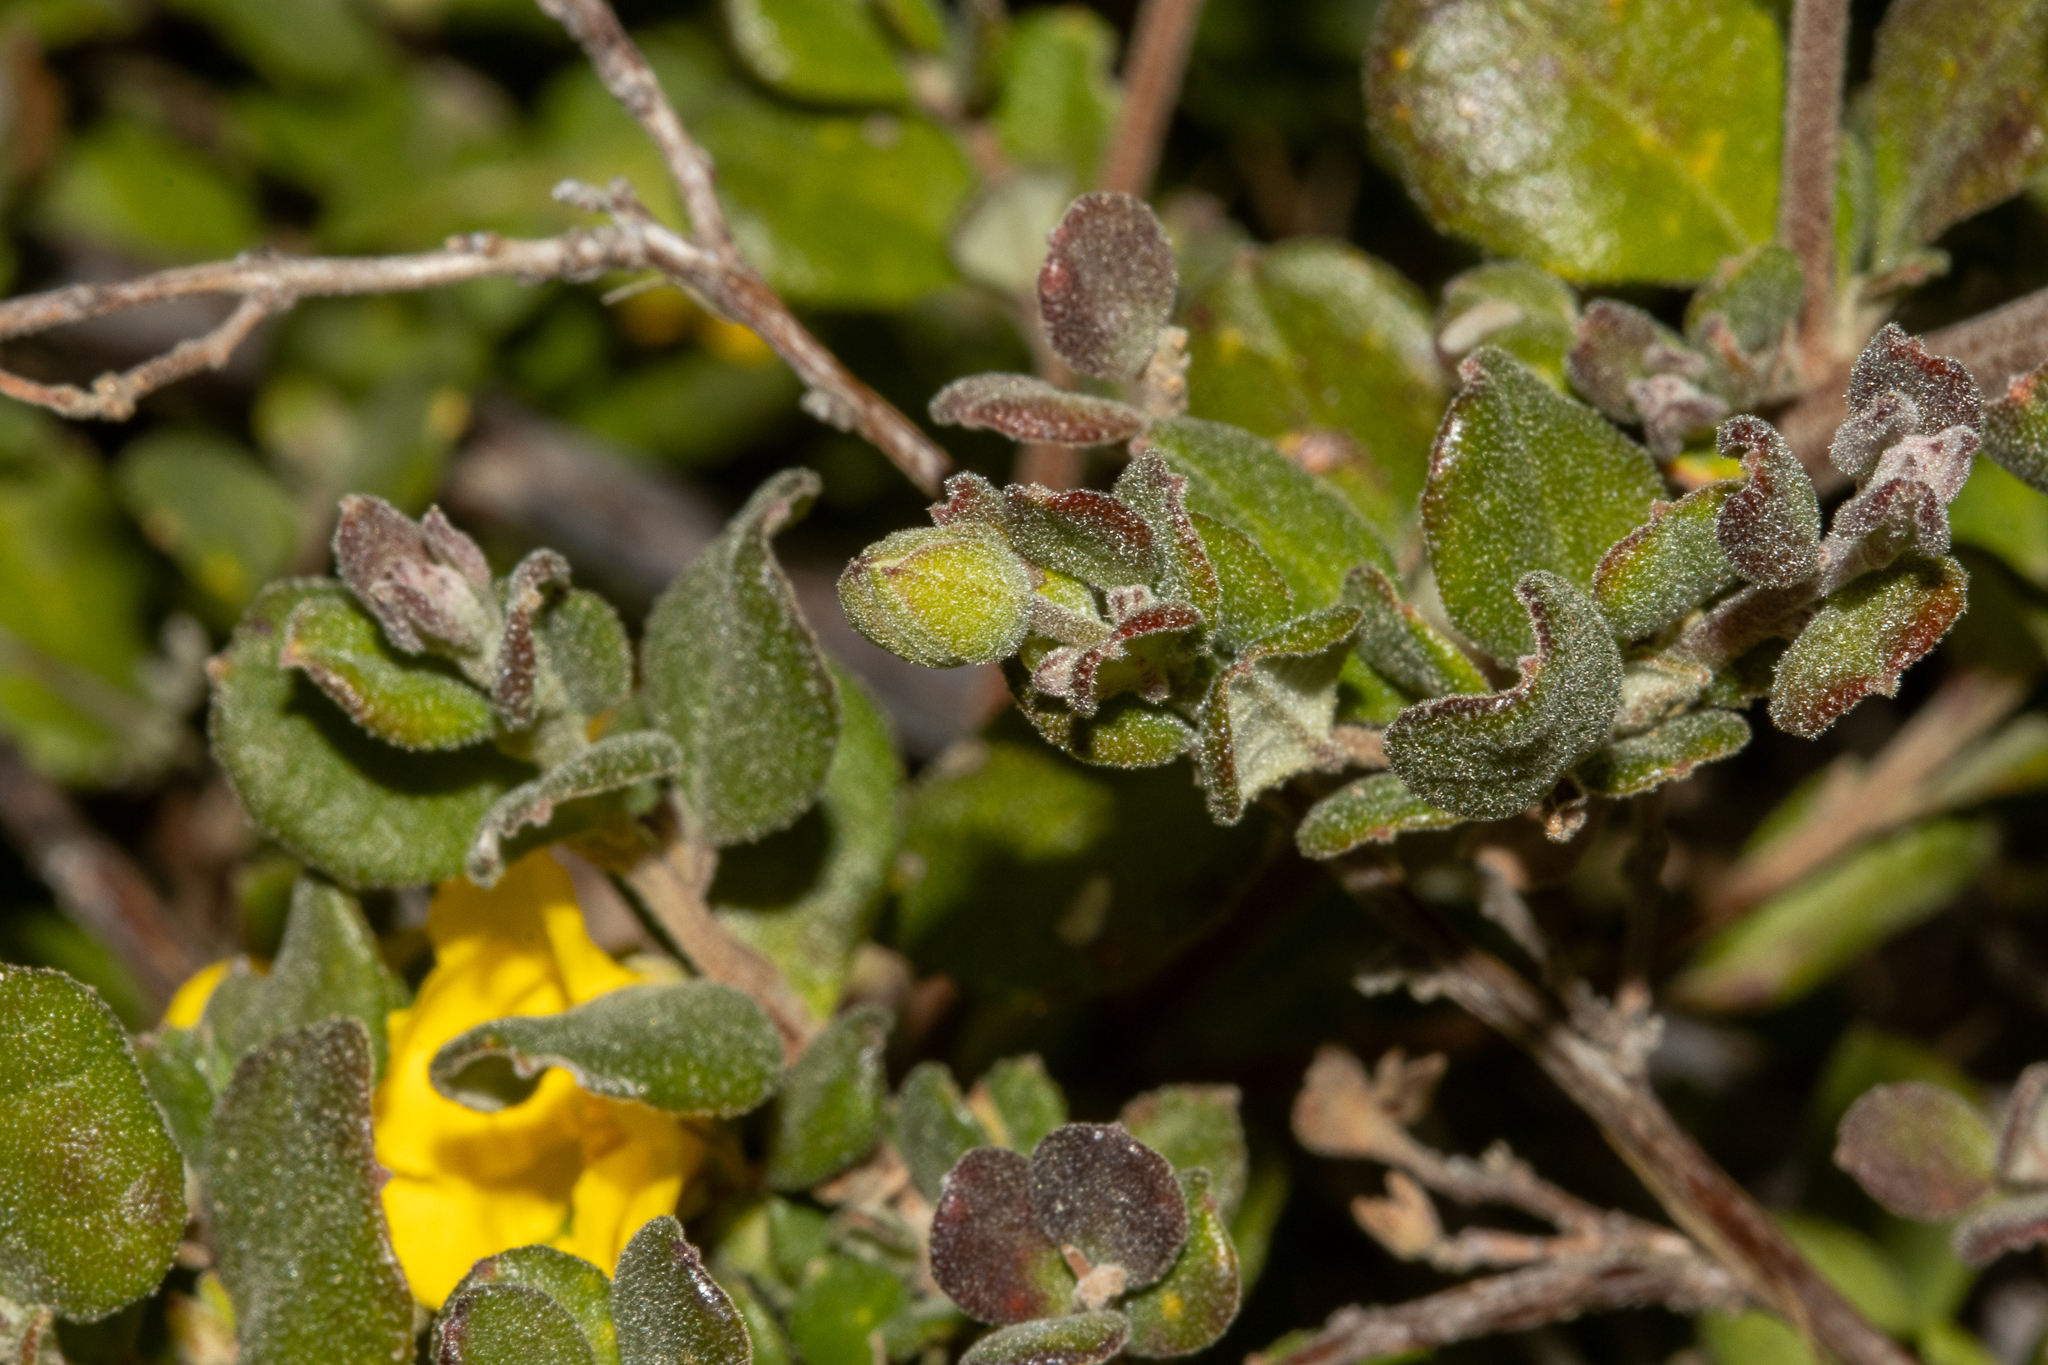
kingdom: Plantae
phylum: Tracheophyta
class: Magnoliopsida
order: Dilleniales
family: Dilleniaceae
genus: Hibbertia
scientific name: Hibbertia truncata
